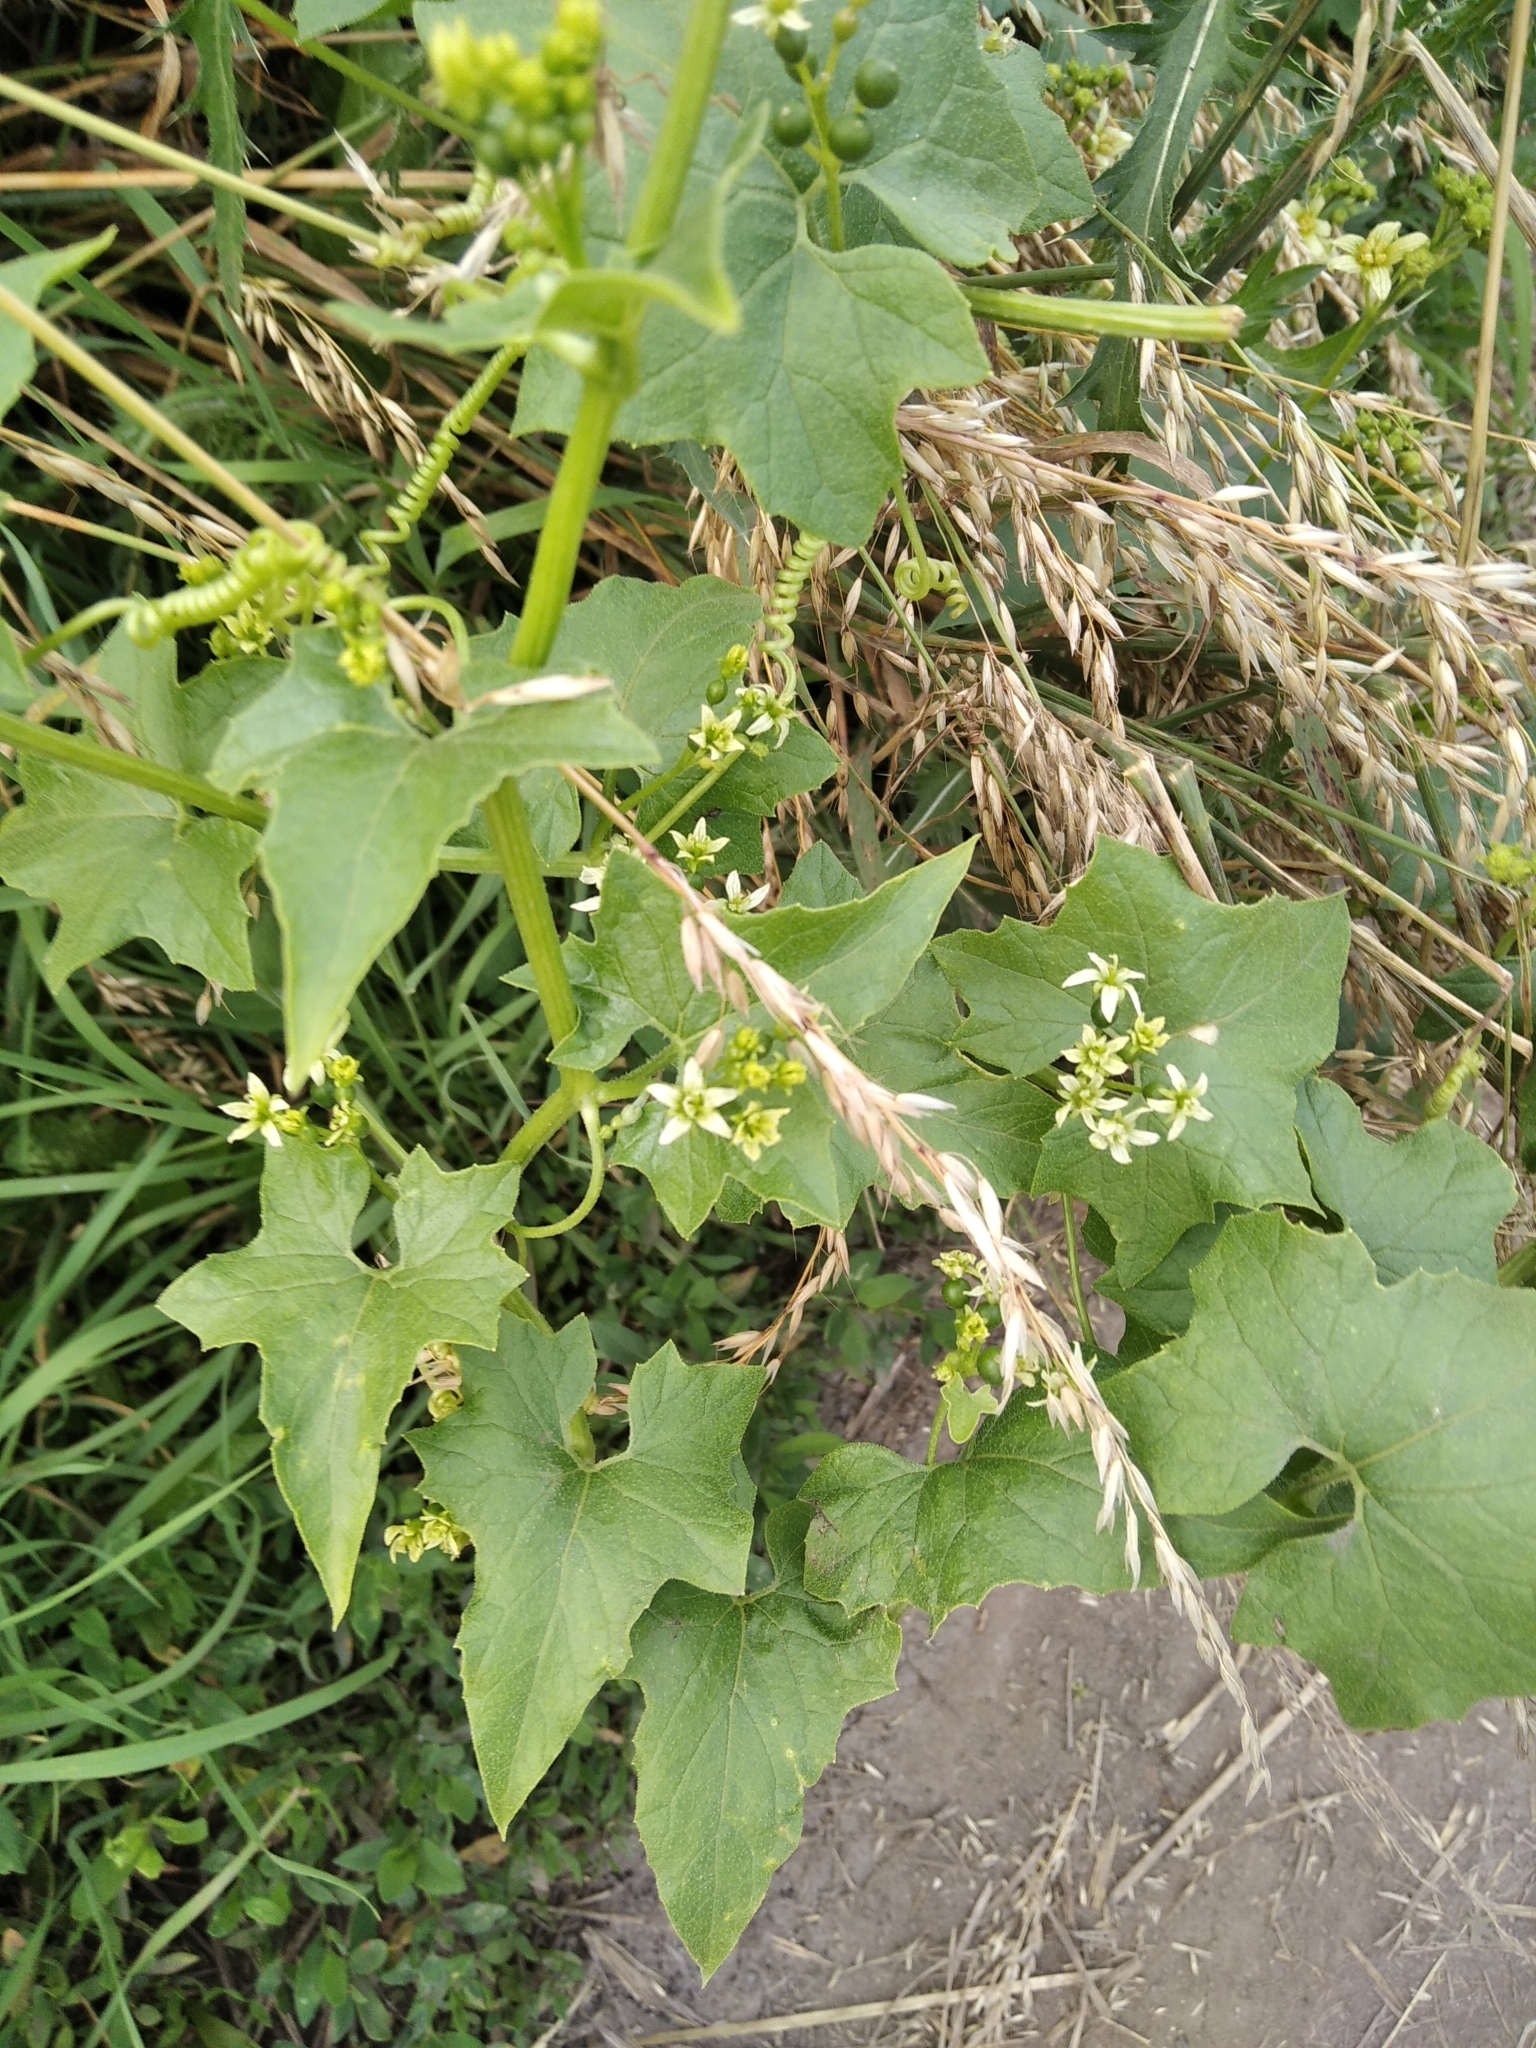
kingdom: Plantae
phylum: Tracheophyta
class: Magnoliopsida
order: Cucurbitales
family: Cucurbitaceae
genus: Bryonia
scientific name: Bryonia alba
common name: White bryony
